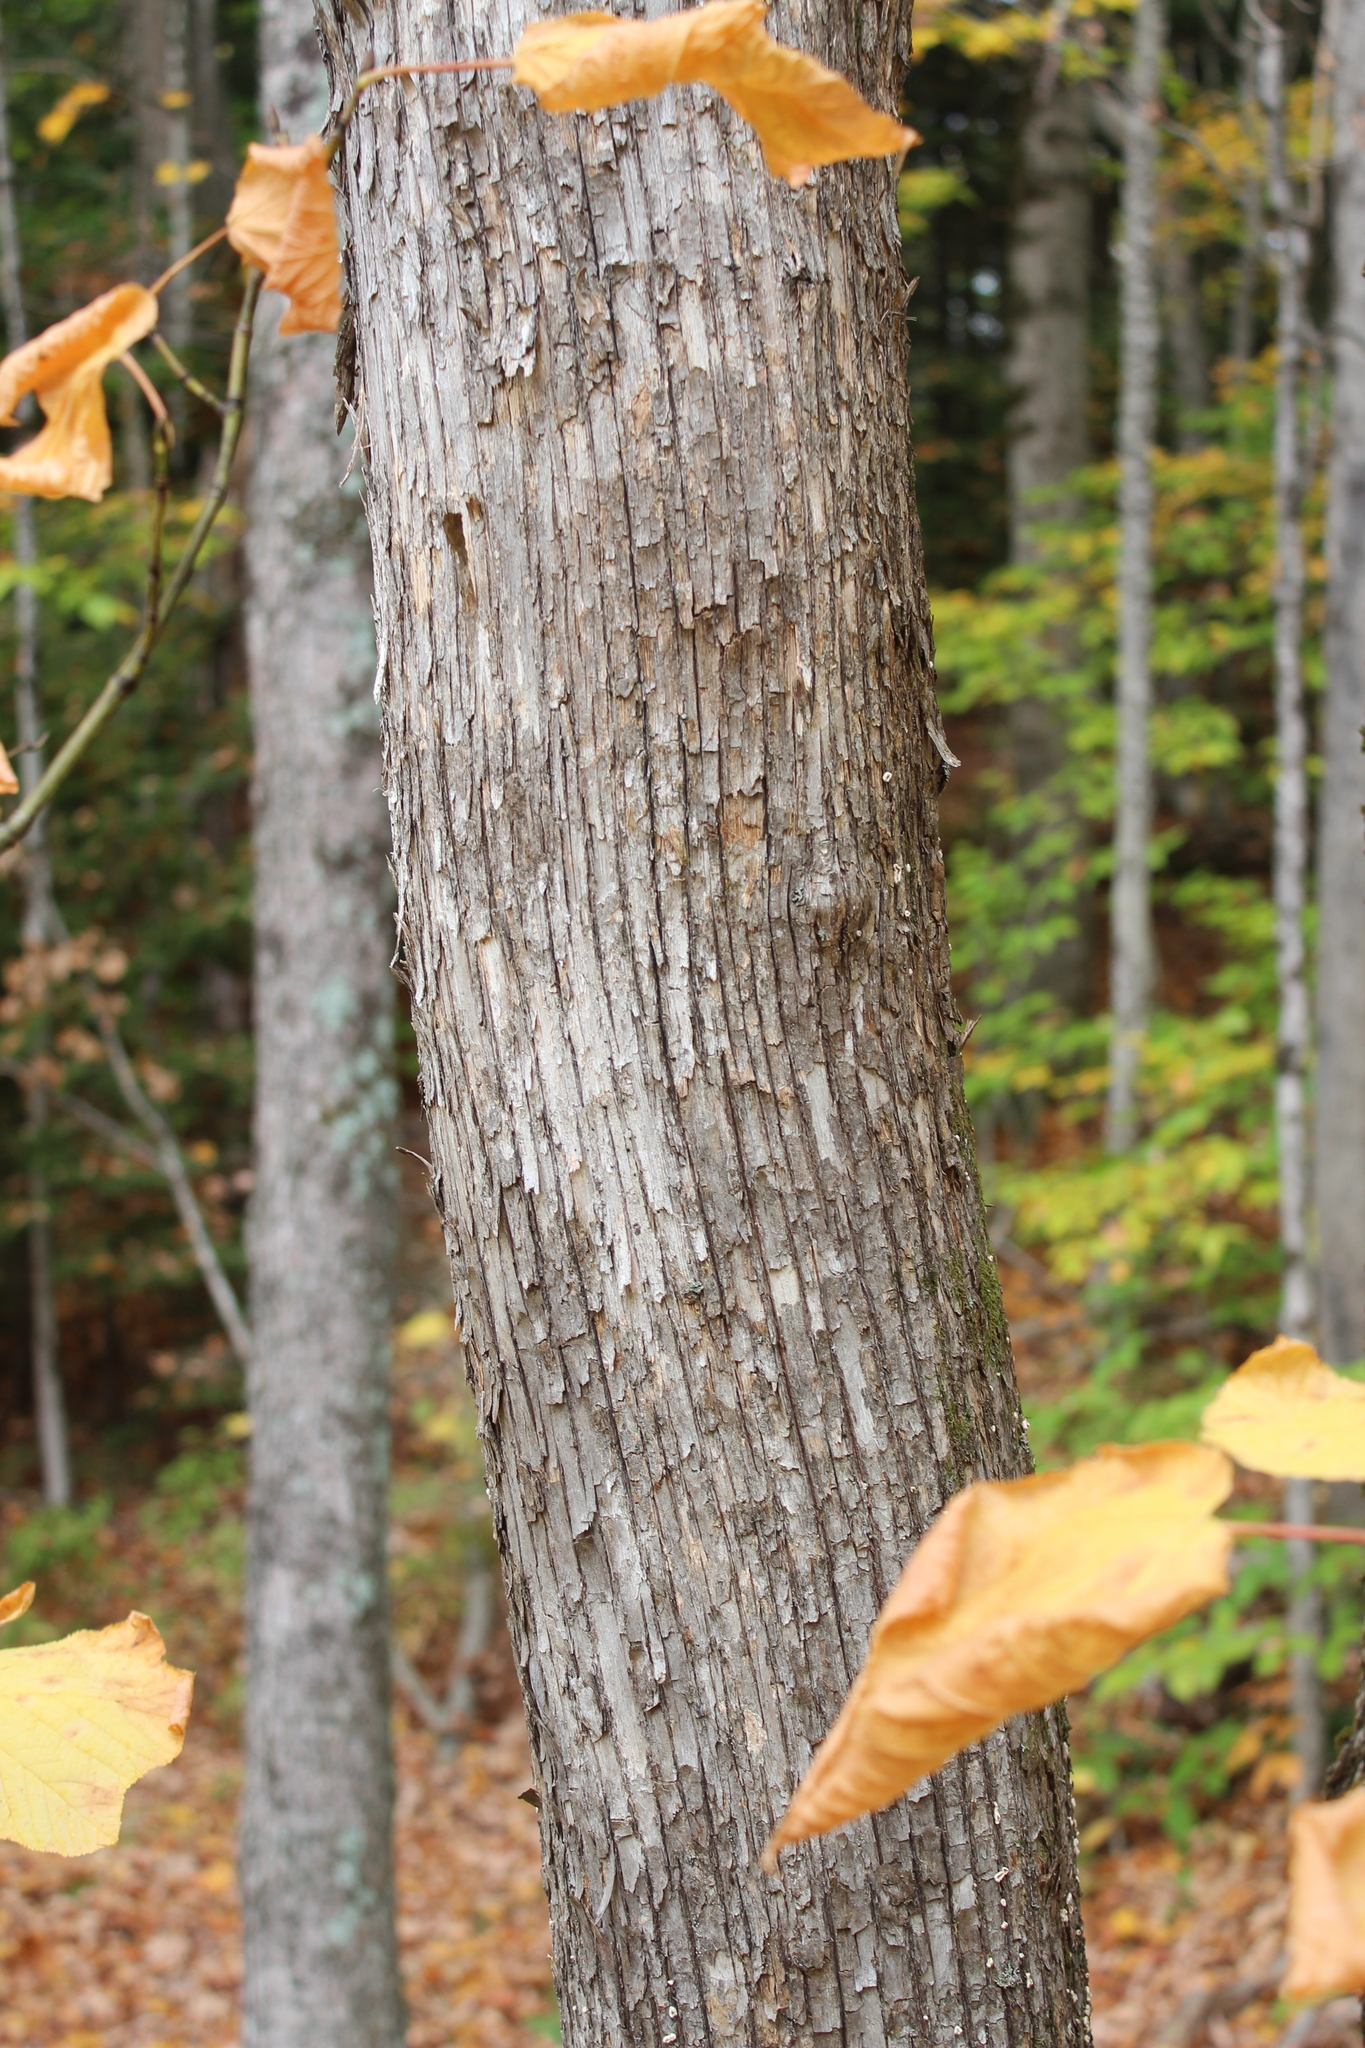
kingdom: Plantae
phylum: Tracheophyta
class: Magnoliopsida
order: Fagales
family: Betulaceae
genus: Ostrya
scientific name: Ostrya virginiana
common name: Ironwood
